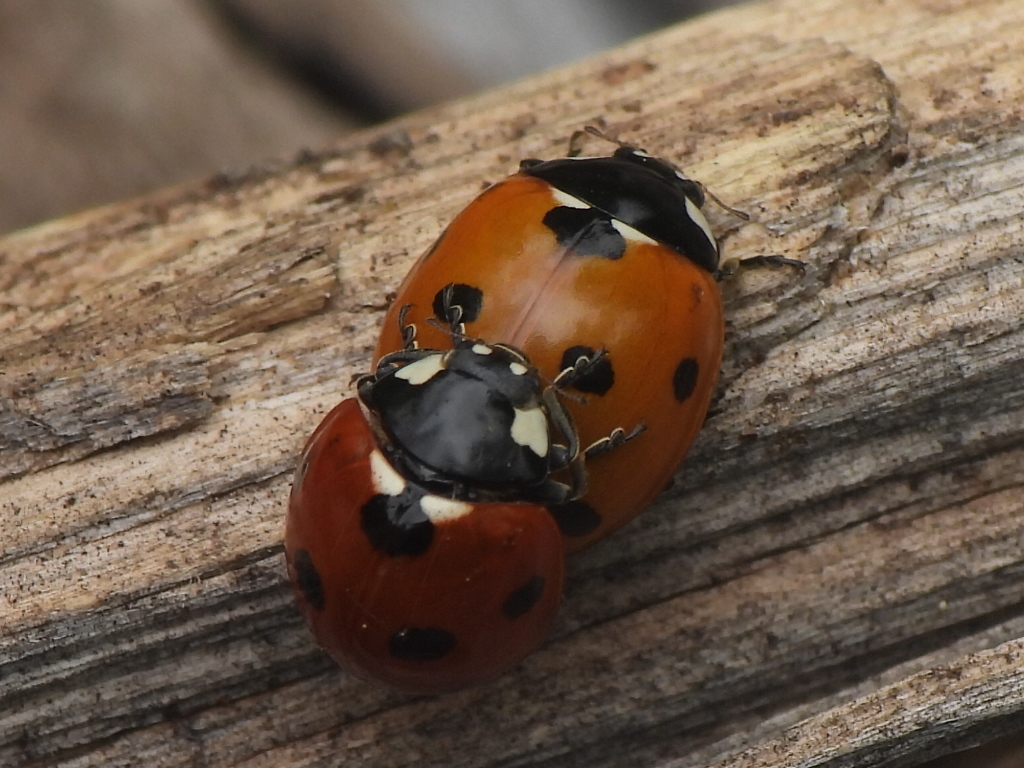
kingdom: Animalia
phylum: Arthropoda
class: Insecta
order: Coleoptera
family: Coccinellidae
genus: Coccinella
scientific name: Coccinella septempunctata
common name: Sevenspotted lady beetle
